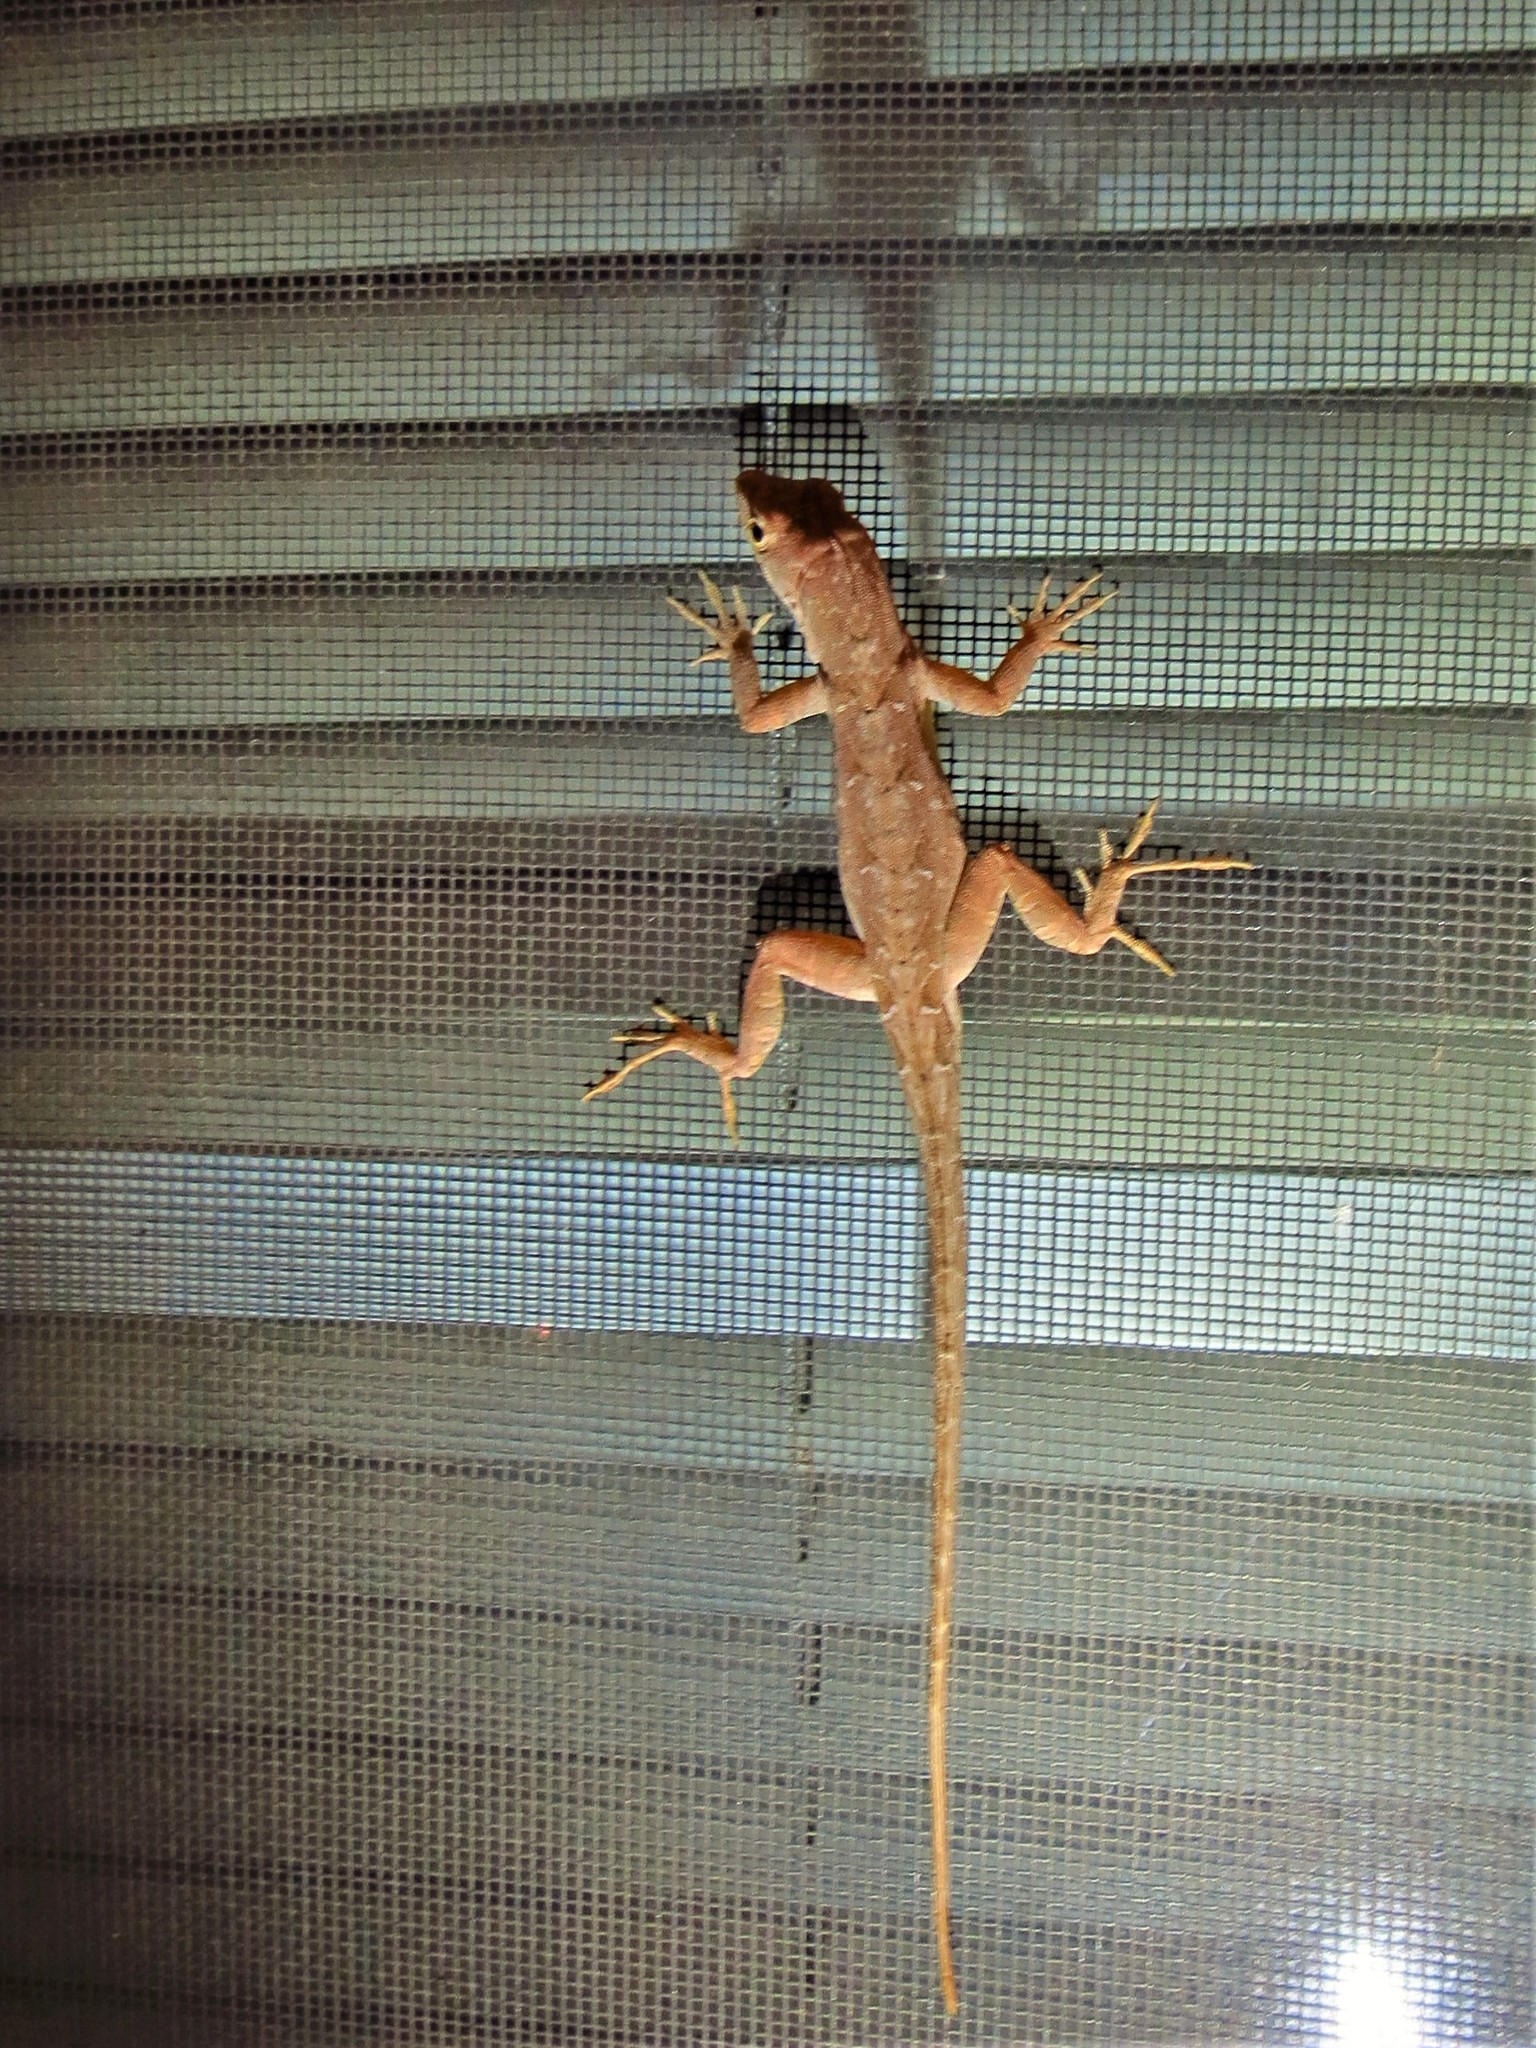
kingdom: Animalia
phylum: Chordata
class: Squamata
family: Dactyloidae
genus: Anolis
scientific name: Anolis sagrei
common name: Brown anole
